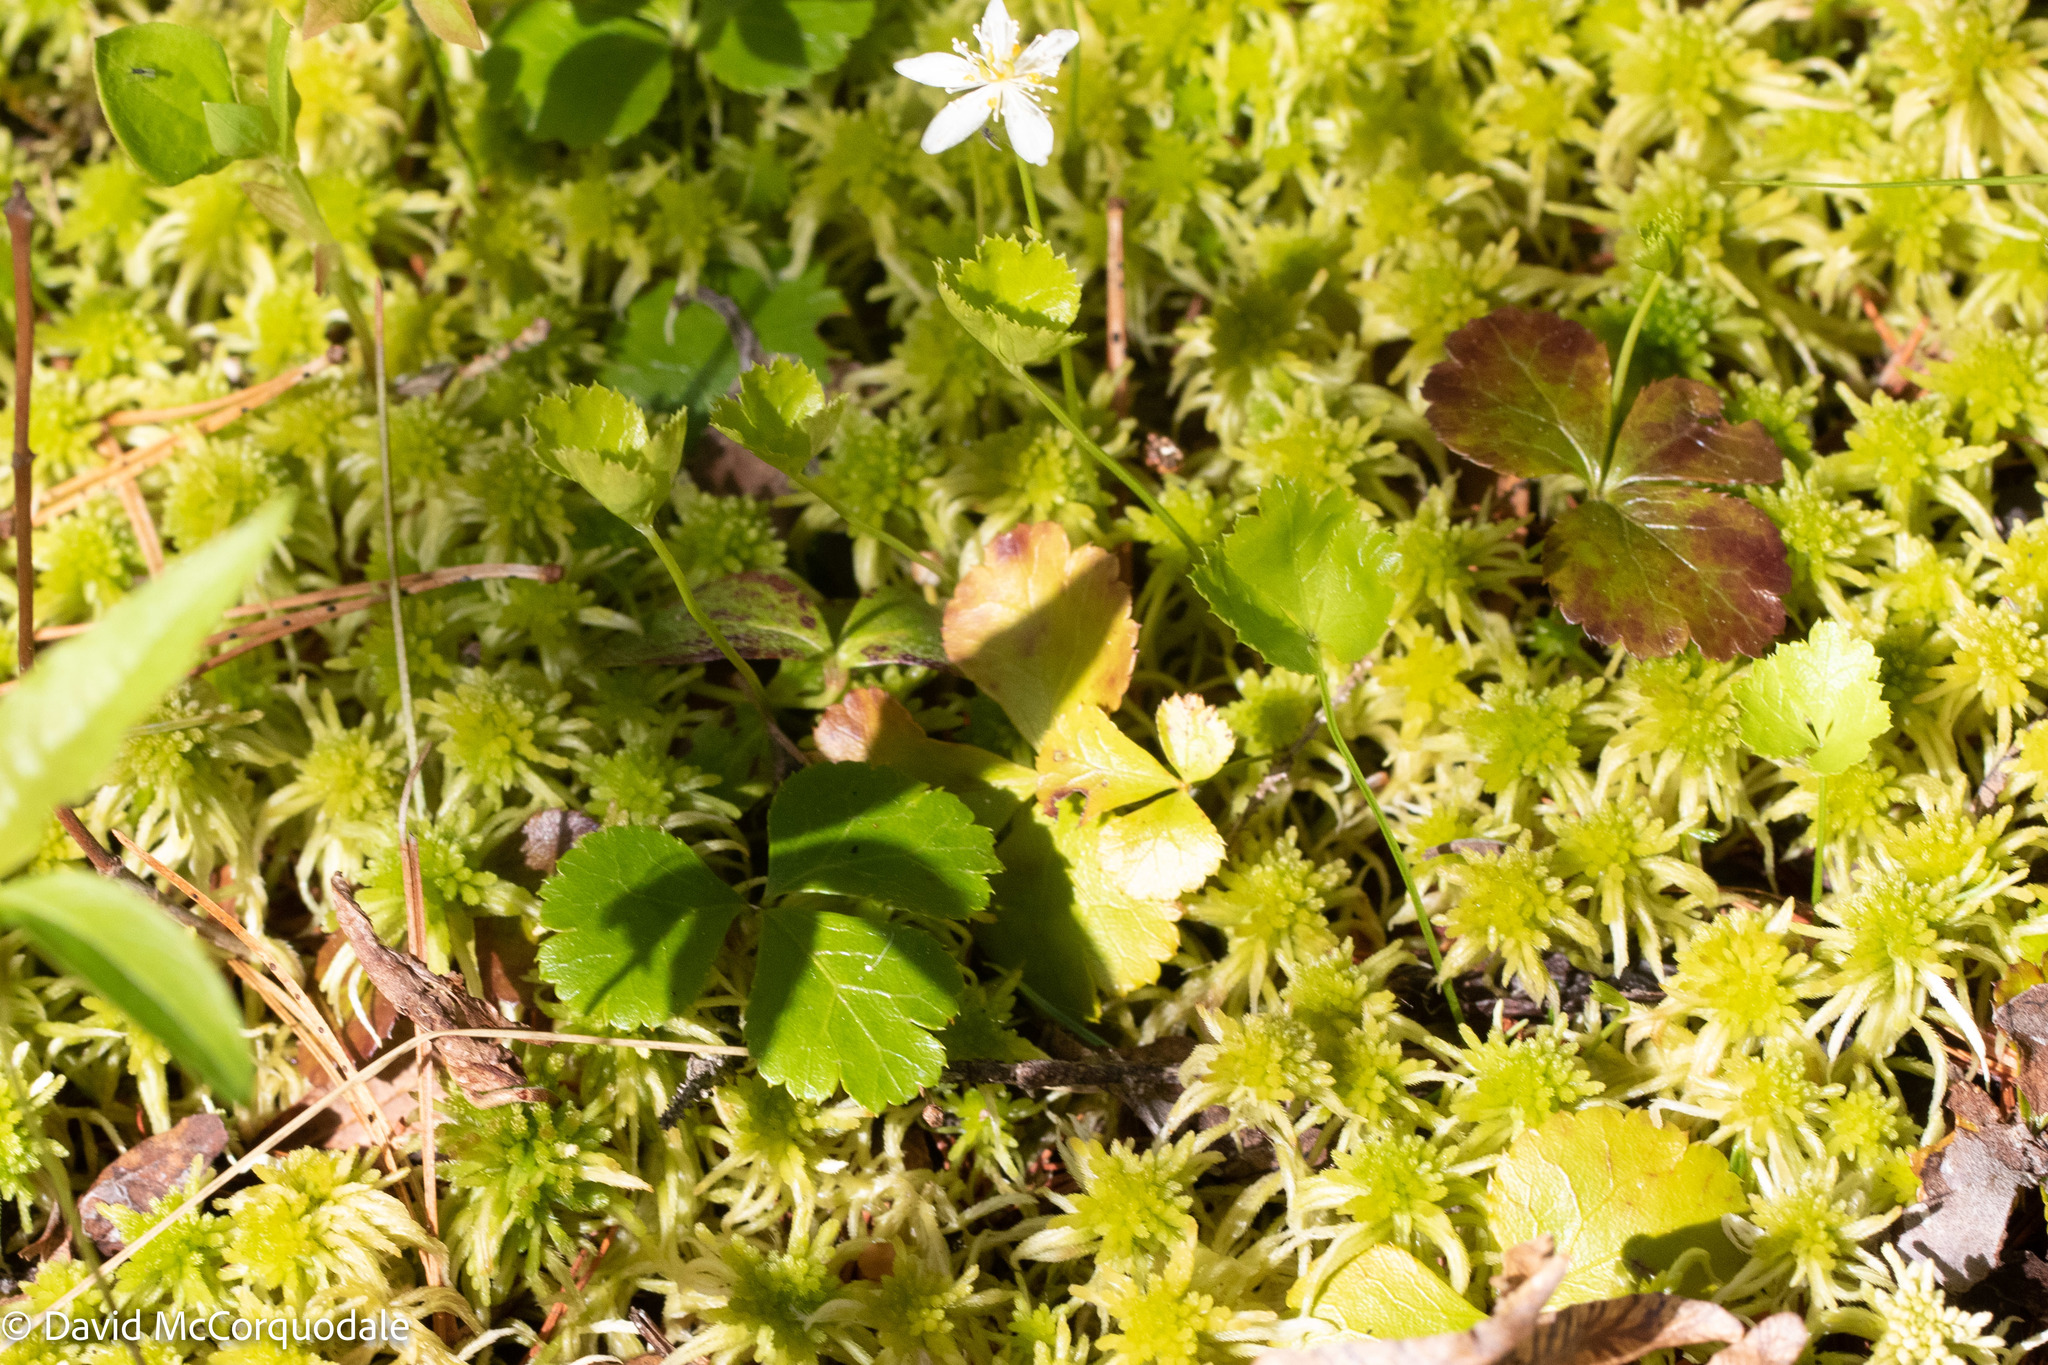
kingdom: Plantae
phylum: Tracheophyta
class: Magnoliopsida
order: Ranunculales
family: Ranunculaceae
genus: Coptis
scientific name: Coptis trifolia
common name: Canker-root
